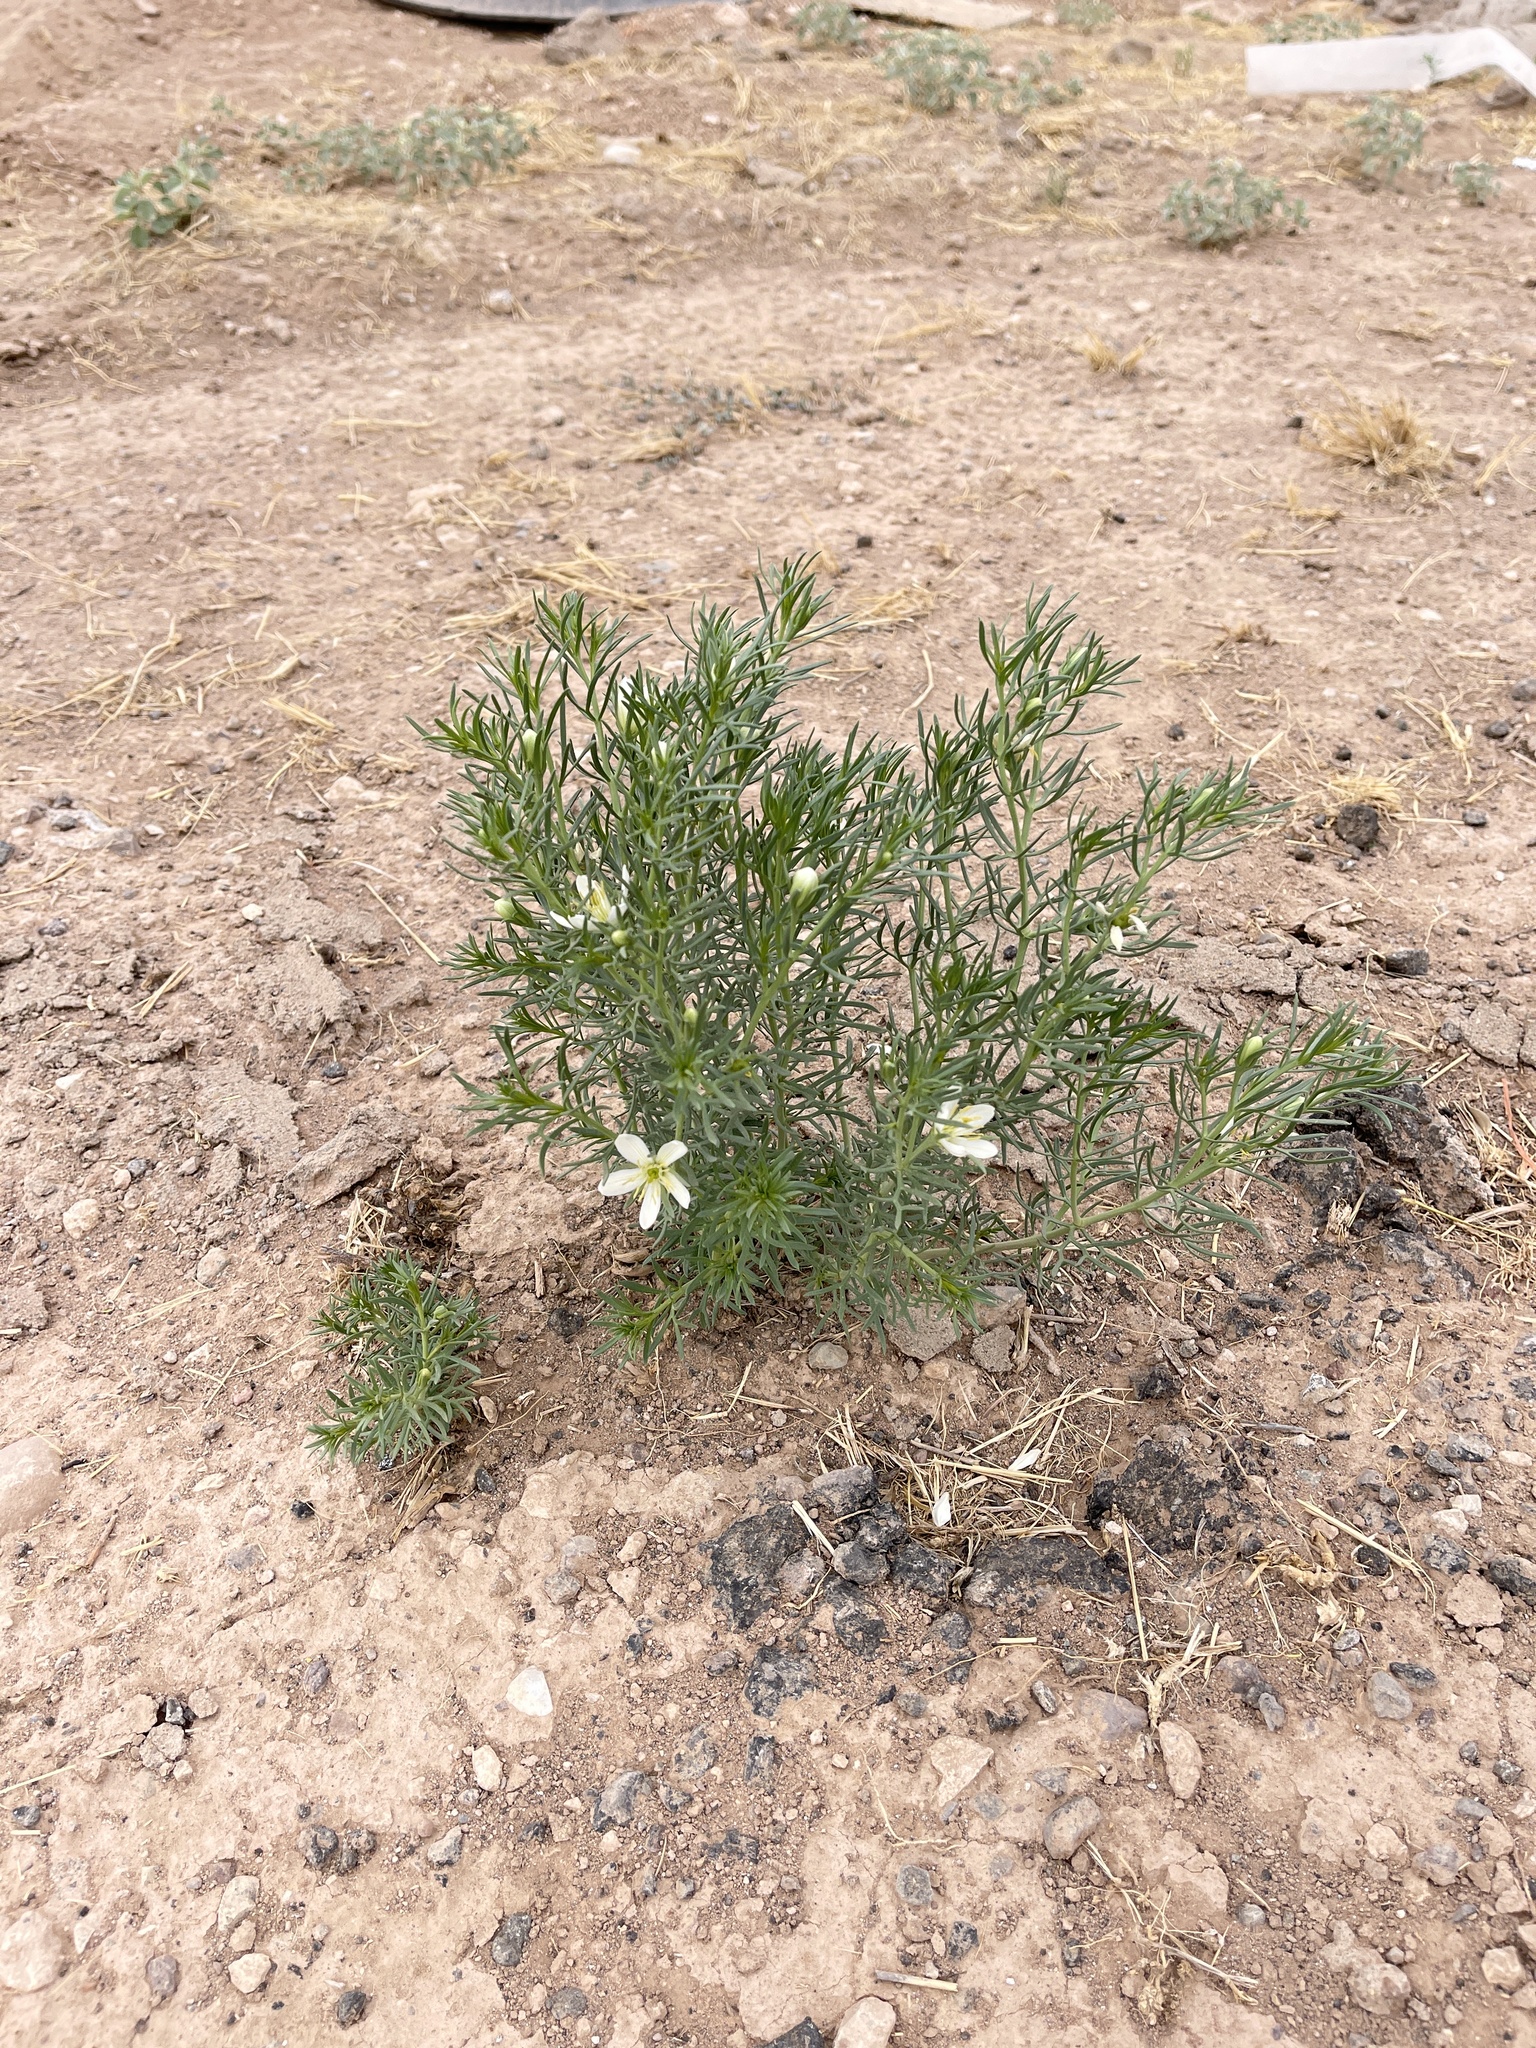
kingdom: Plantae
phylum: Tracheophyta
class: Magnoliopsida
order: Sapindales
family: Tetradiclidaceae
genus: Peganum
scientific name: Peganum harmala
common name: Harmal peganum
